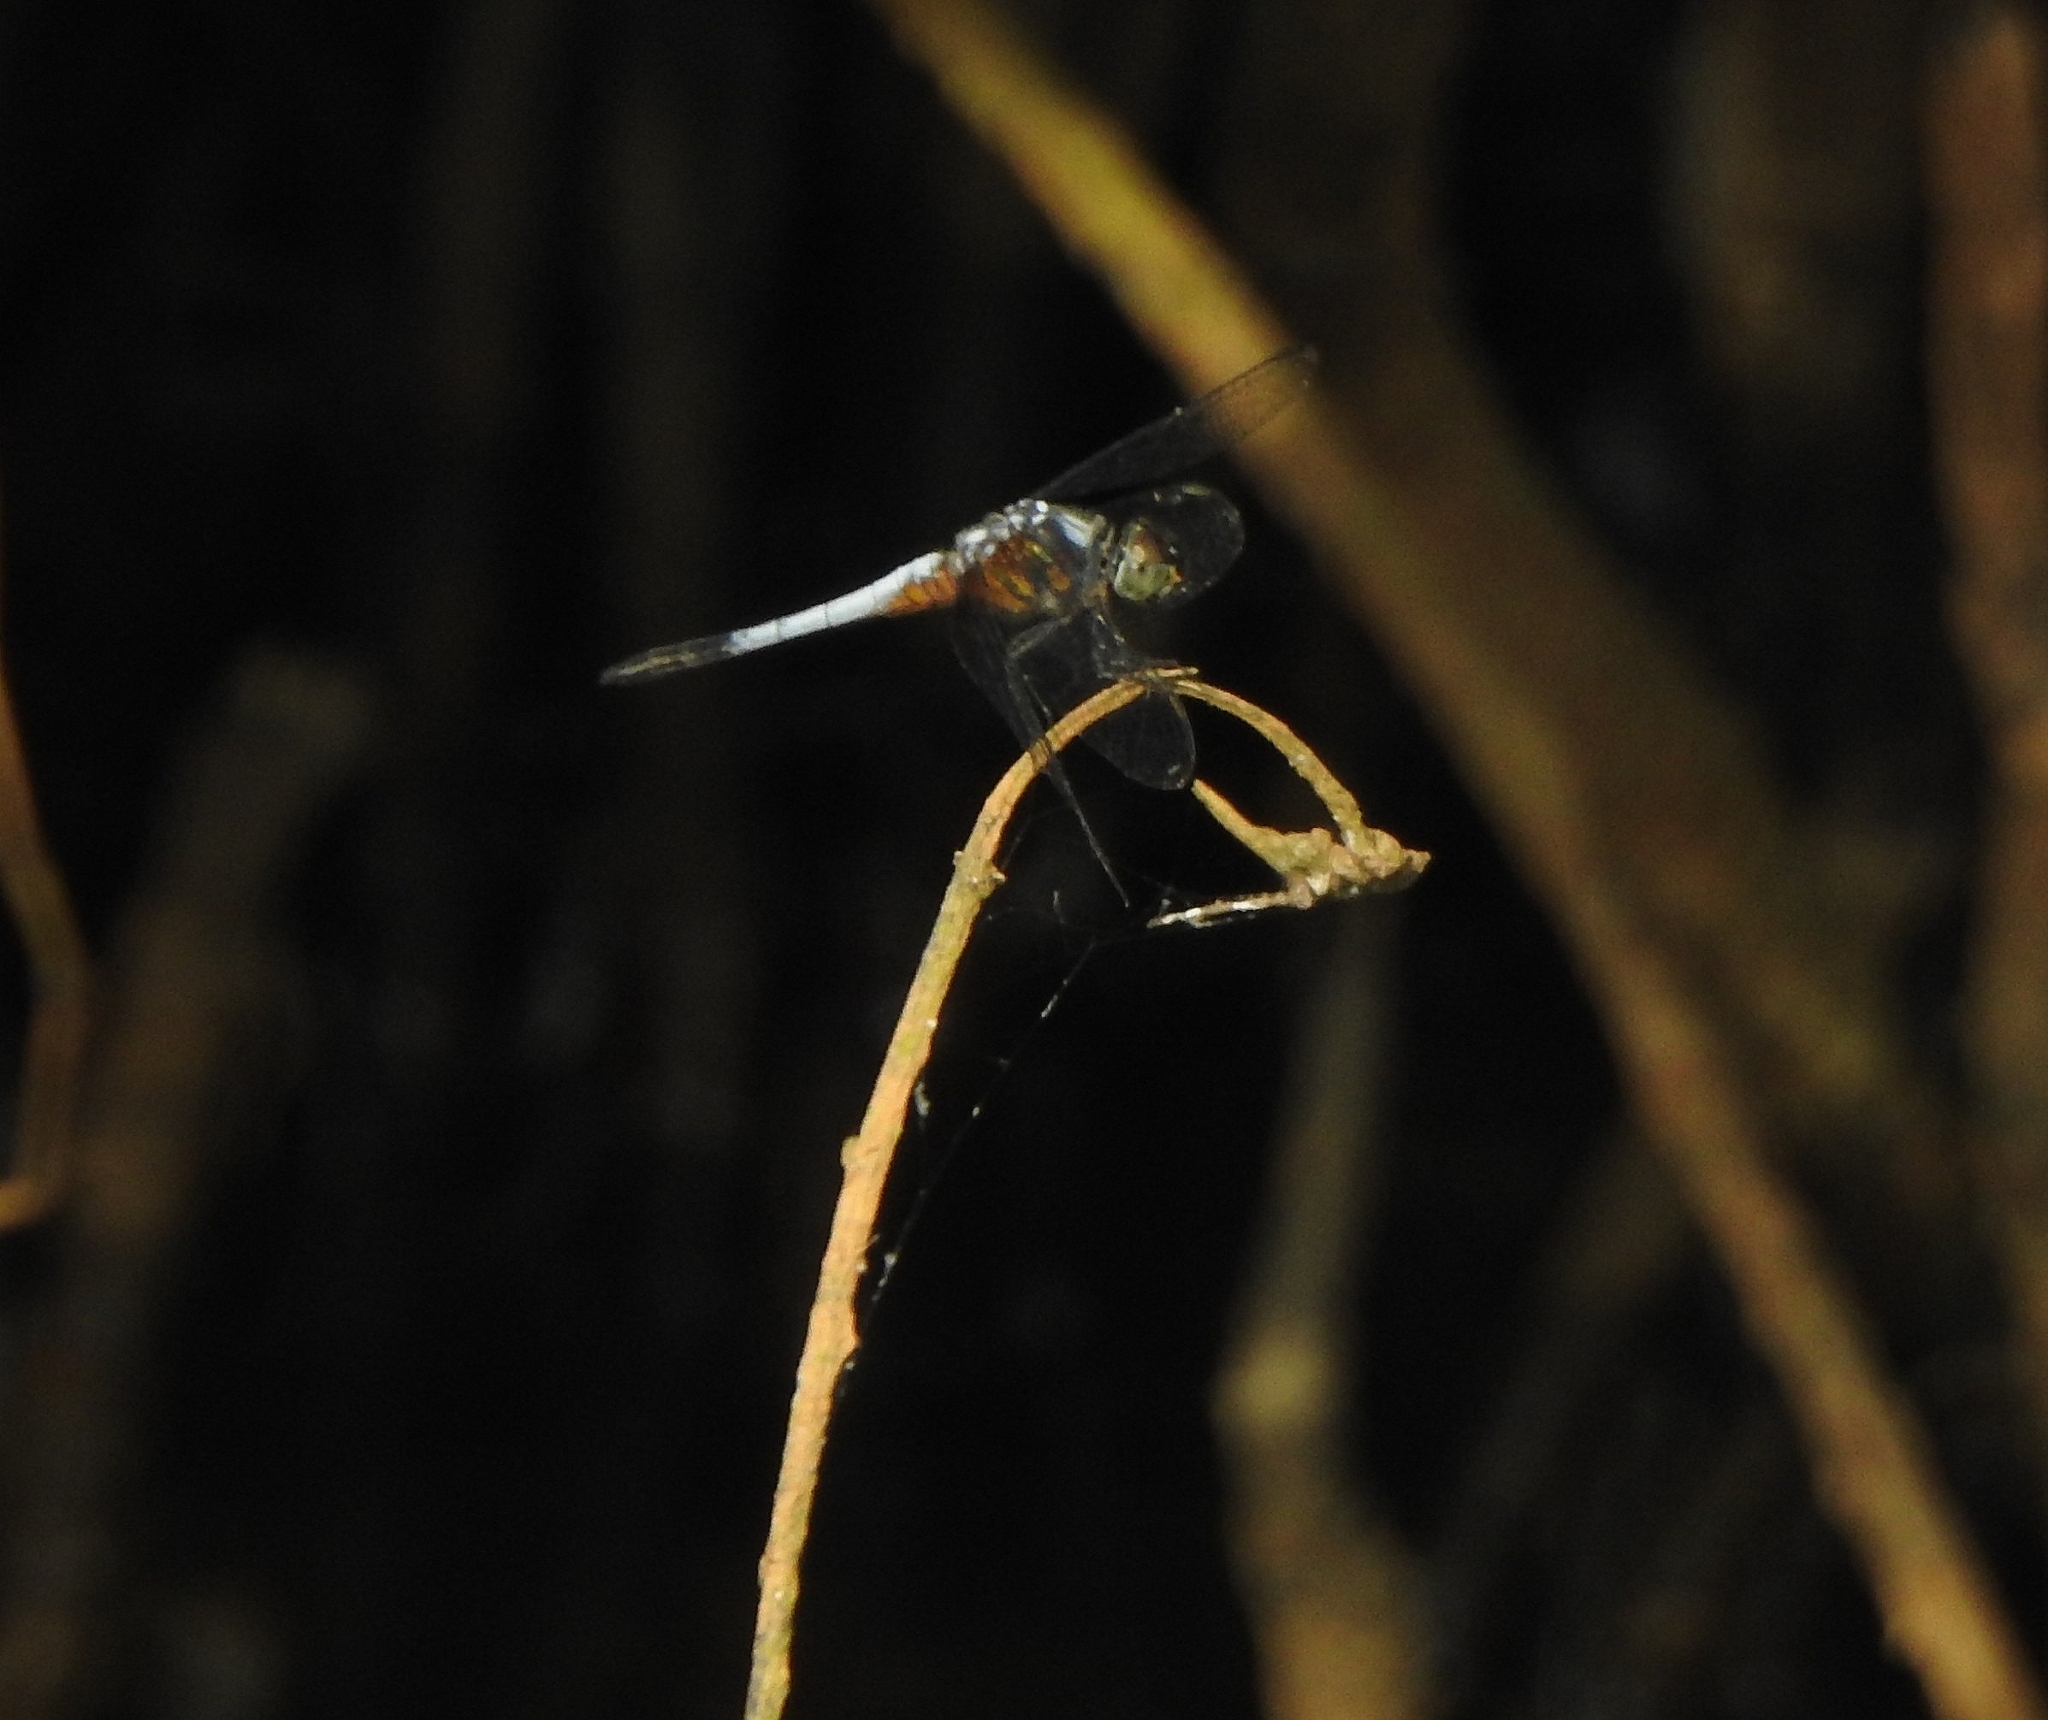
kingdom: Animalia
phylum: Arthropoda
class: Insecta
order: Odonata
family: Libellulidae
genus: Brachydiplax
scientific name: Brachydiplax chalybea
